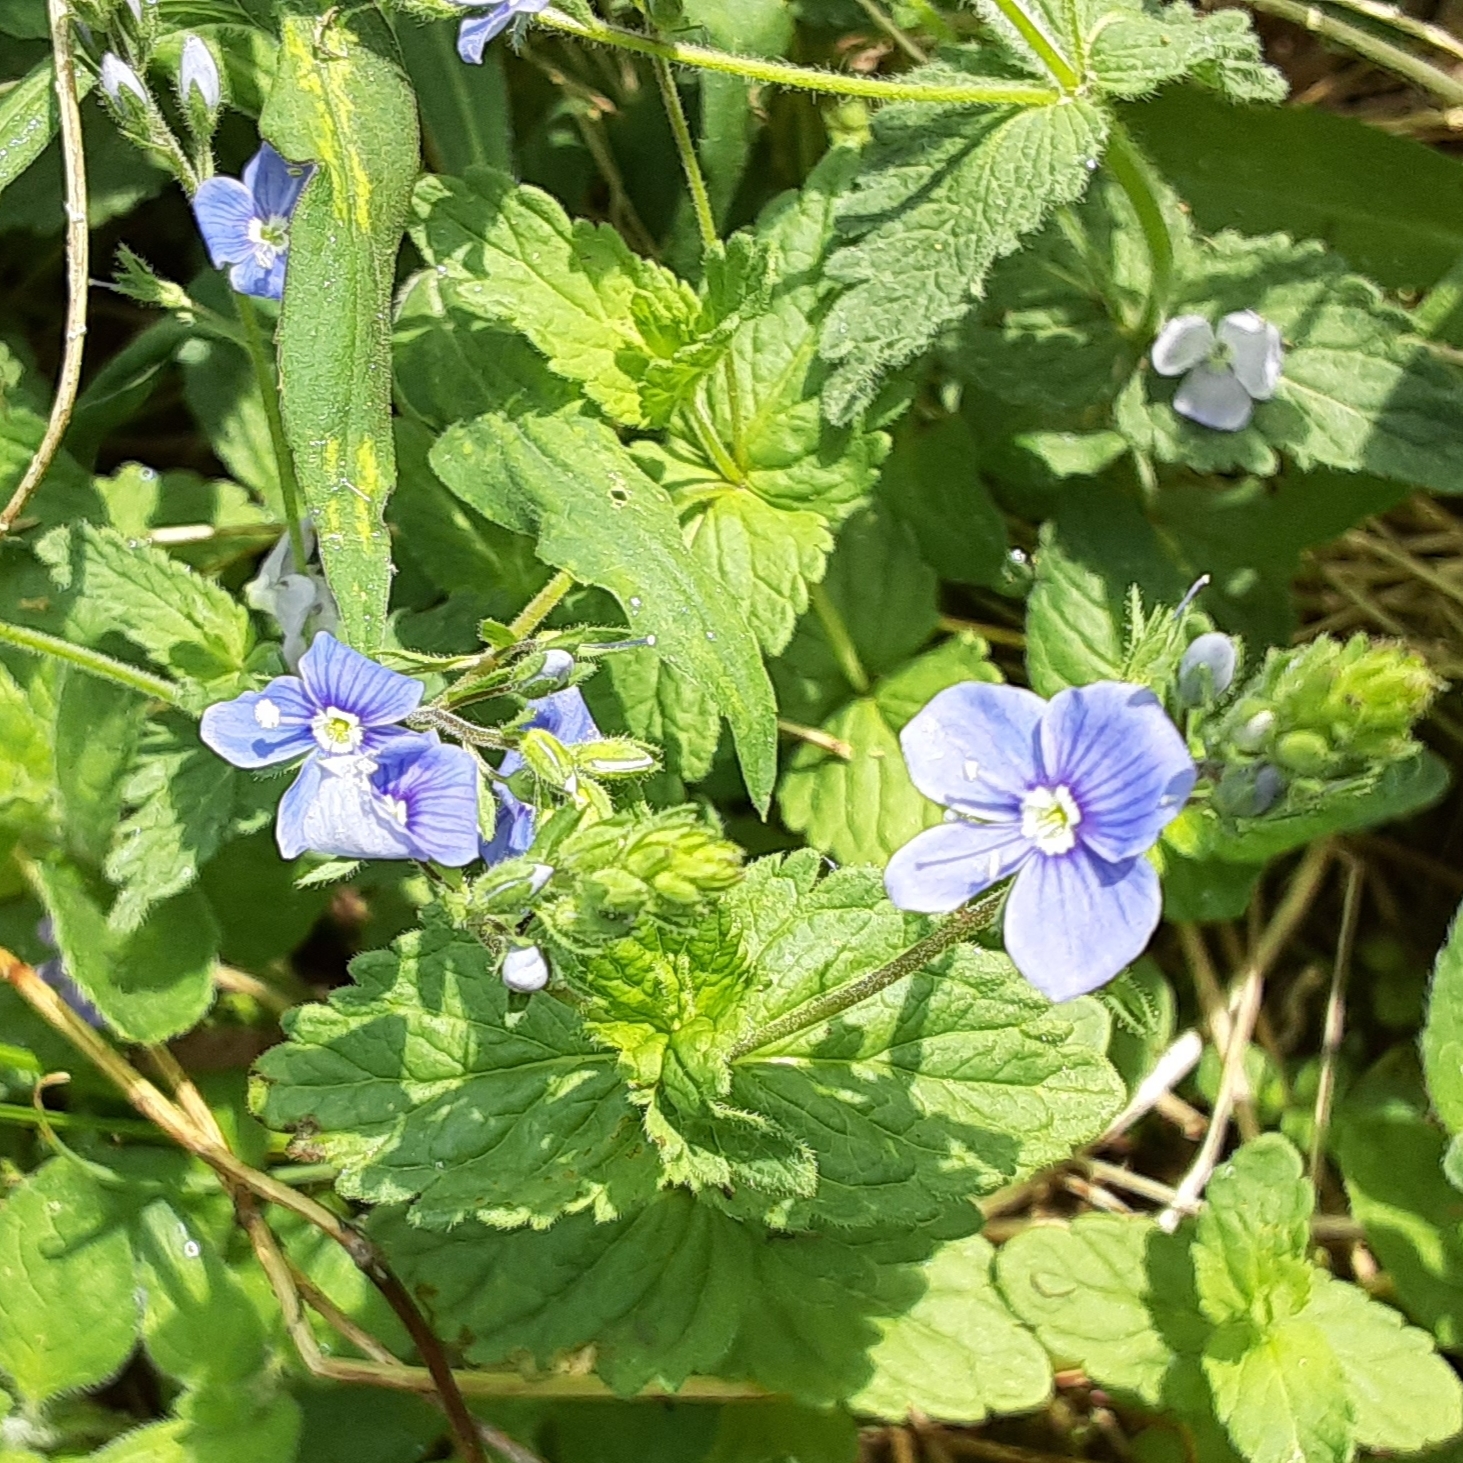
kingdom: Plantae
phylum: Tracheophyta
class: Magnoliopsida
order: Lamiales
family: Plantaginaceae
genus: Veronica
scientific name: Veronica chamaedrys
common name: Germander speedwell
